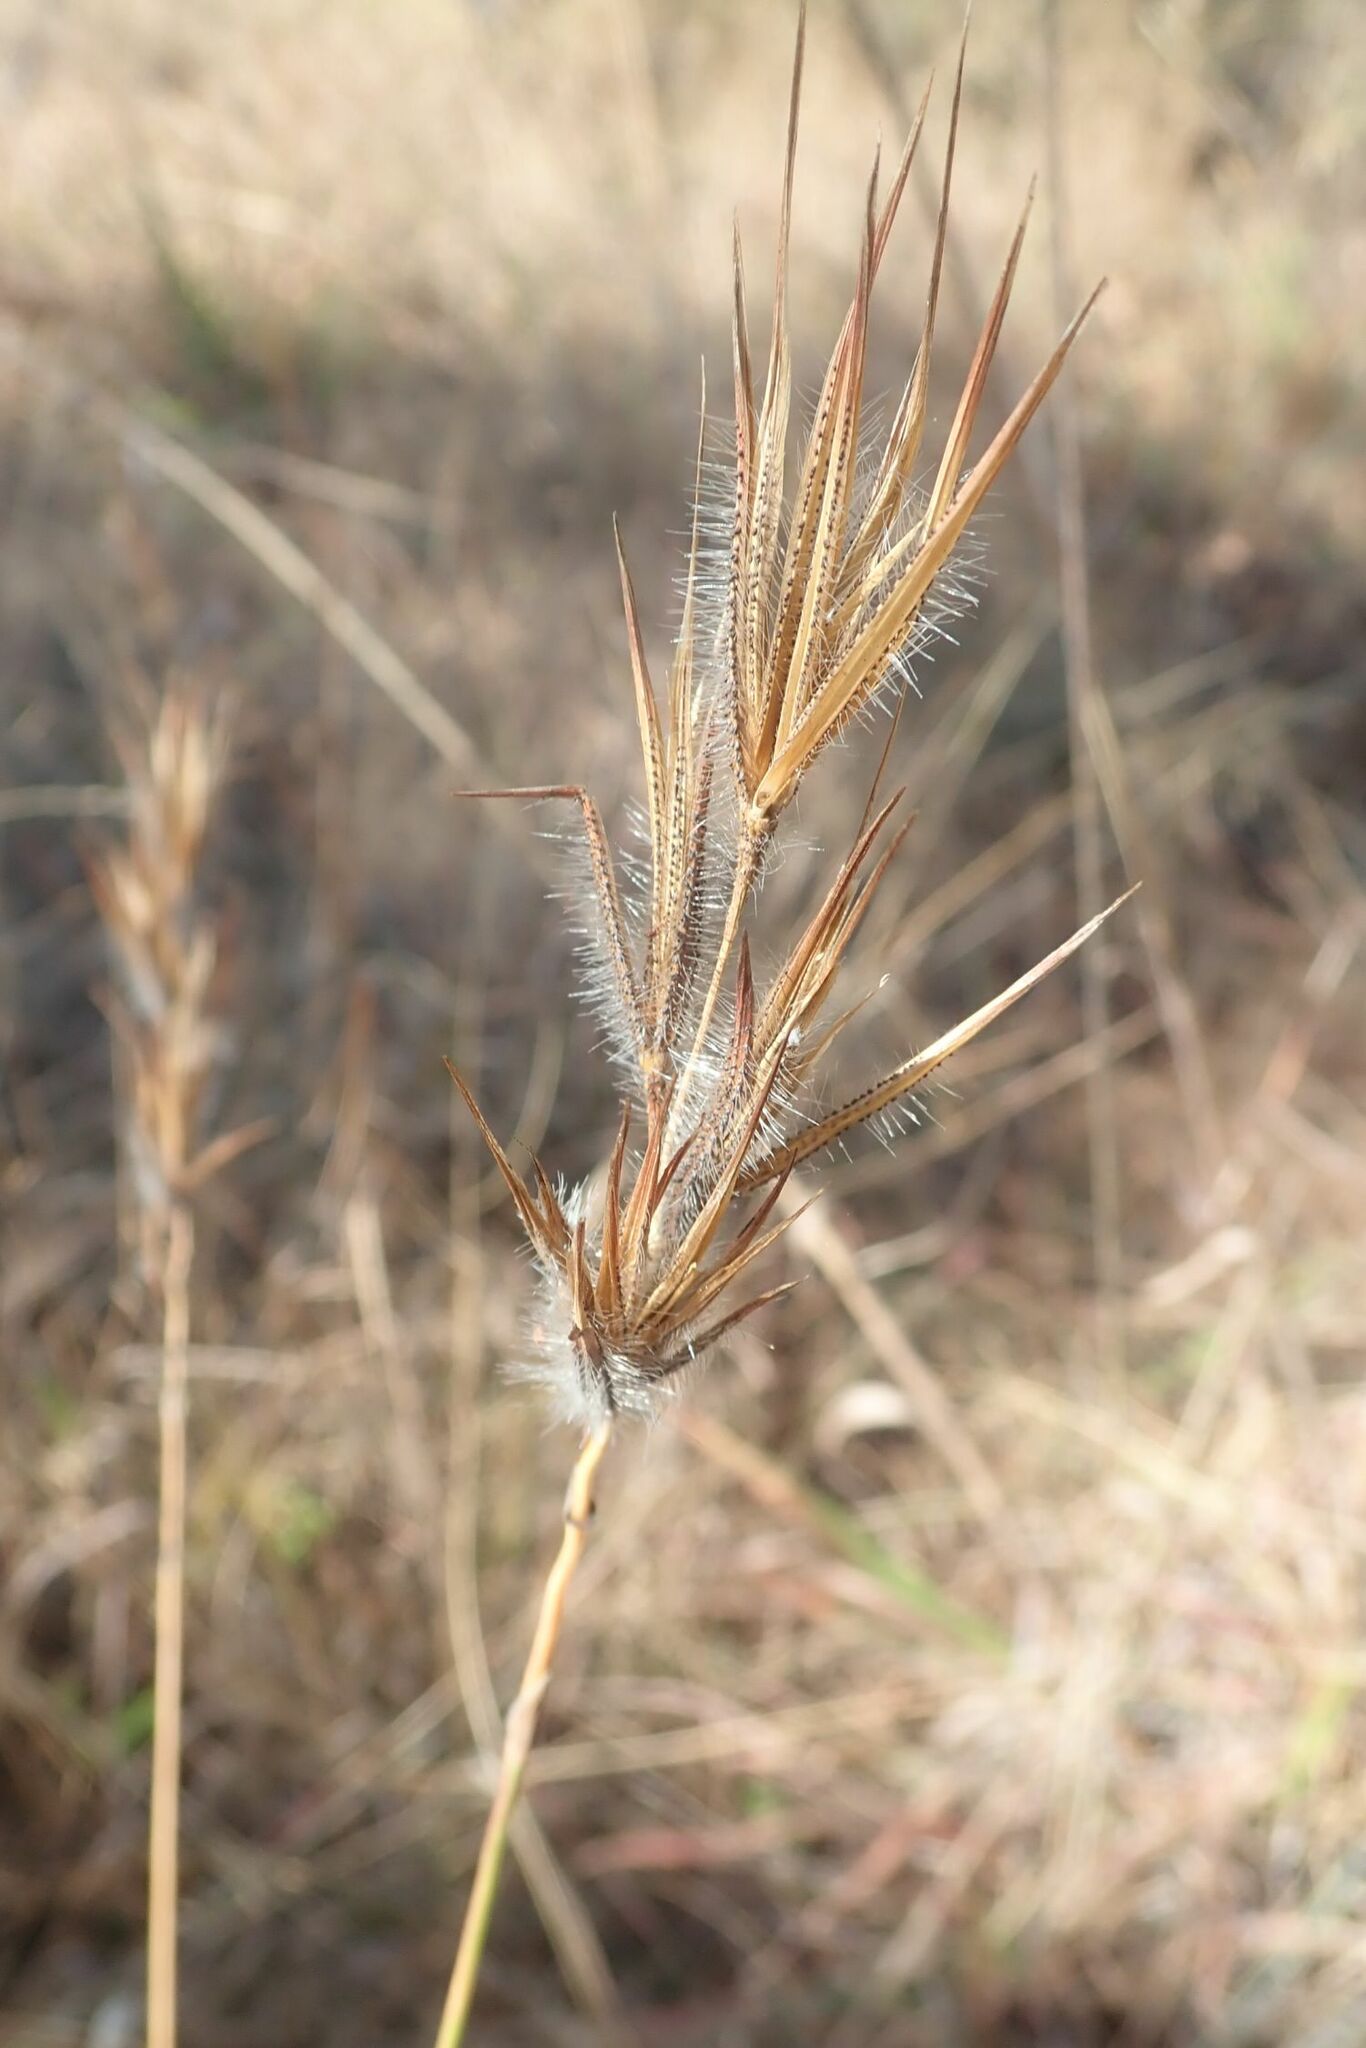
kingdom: Plantae
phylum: Tracheophyta
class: Liliopsida
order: Poales
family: Poaceae
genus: Tristachya
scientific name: Tristachya leucothrix
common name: Trident grass
